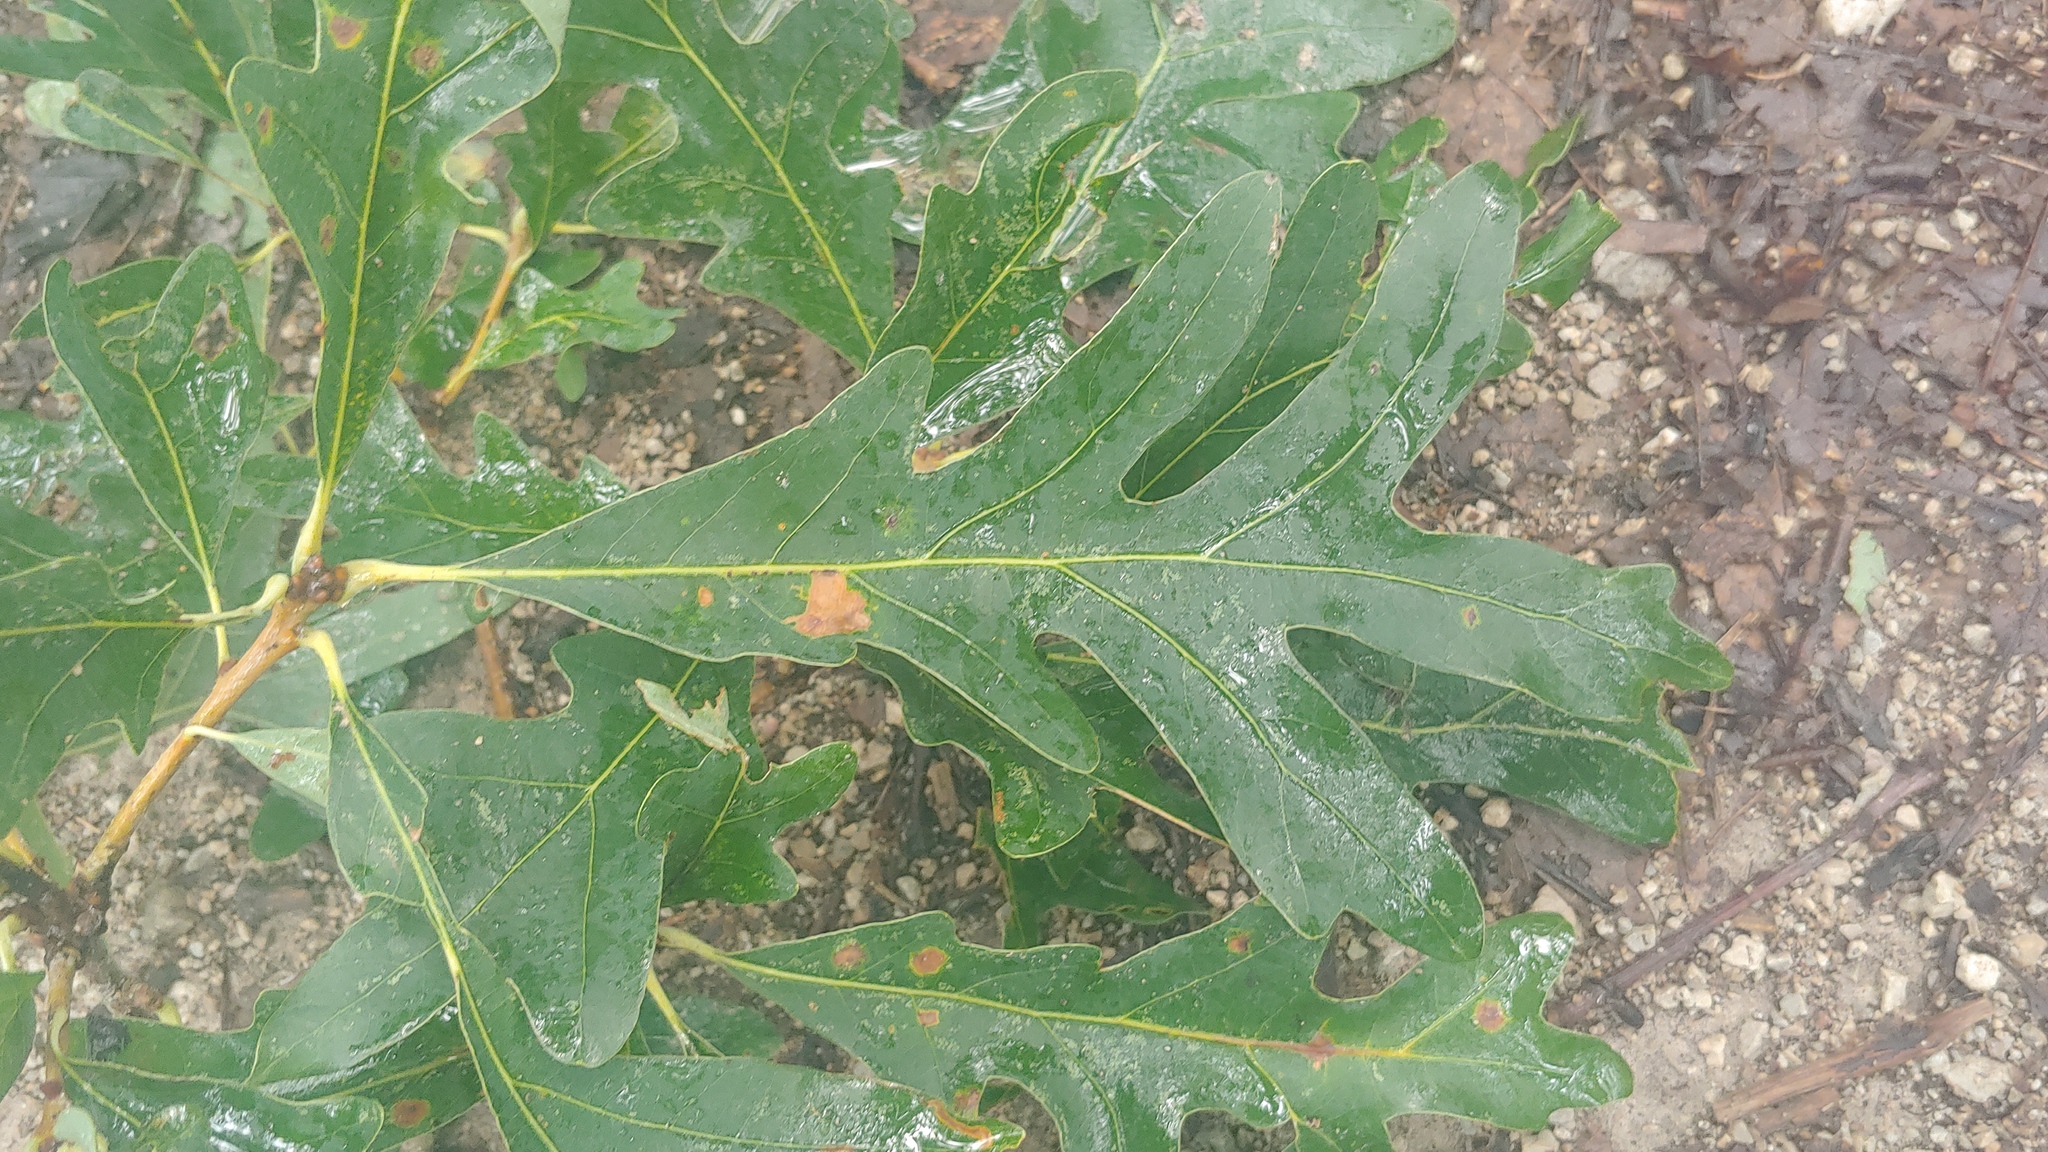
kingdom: Plantae
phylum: Tracheophyta
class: Magnoliopsida
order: Fagales
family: Fagaceae
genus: Quercus
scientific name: Quercus alba
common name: White oak
